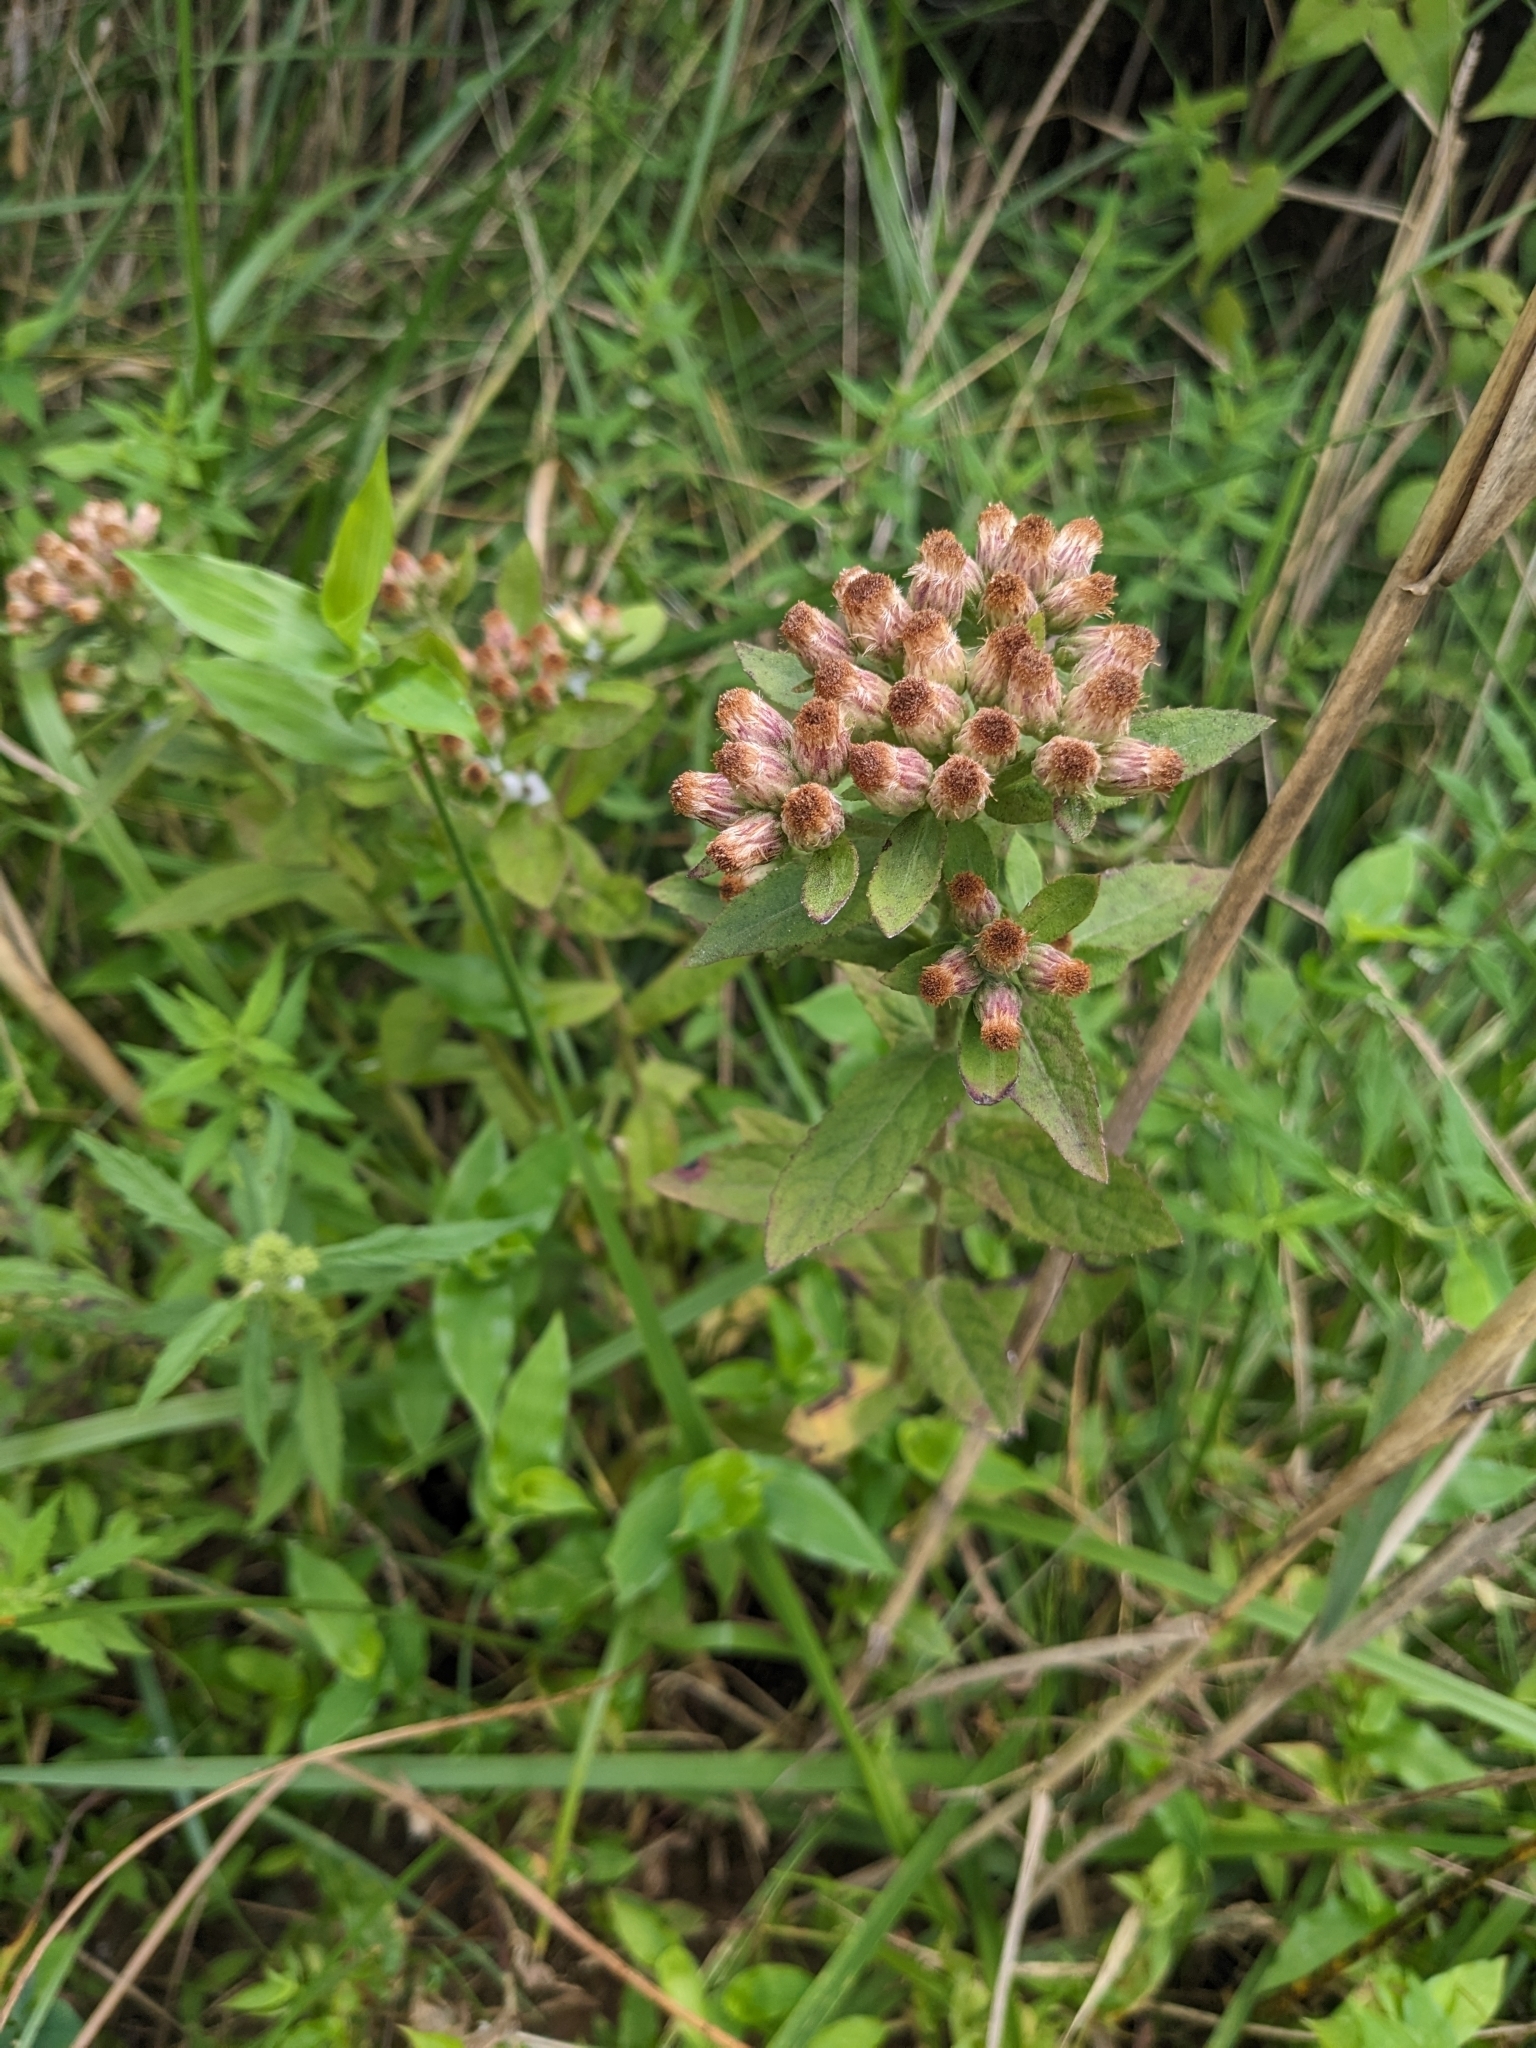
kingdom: Plantae
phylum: Tracheophyta
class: Magnoliopsida
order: Asterales
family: Asteraceae
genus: Pluchea
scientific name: Pluchea foetida
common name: Stinking camphorweed
